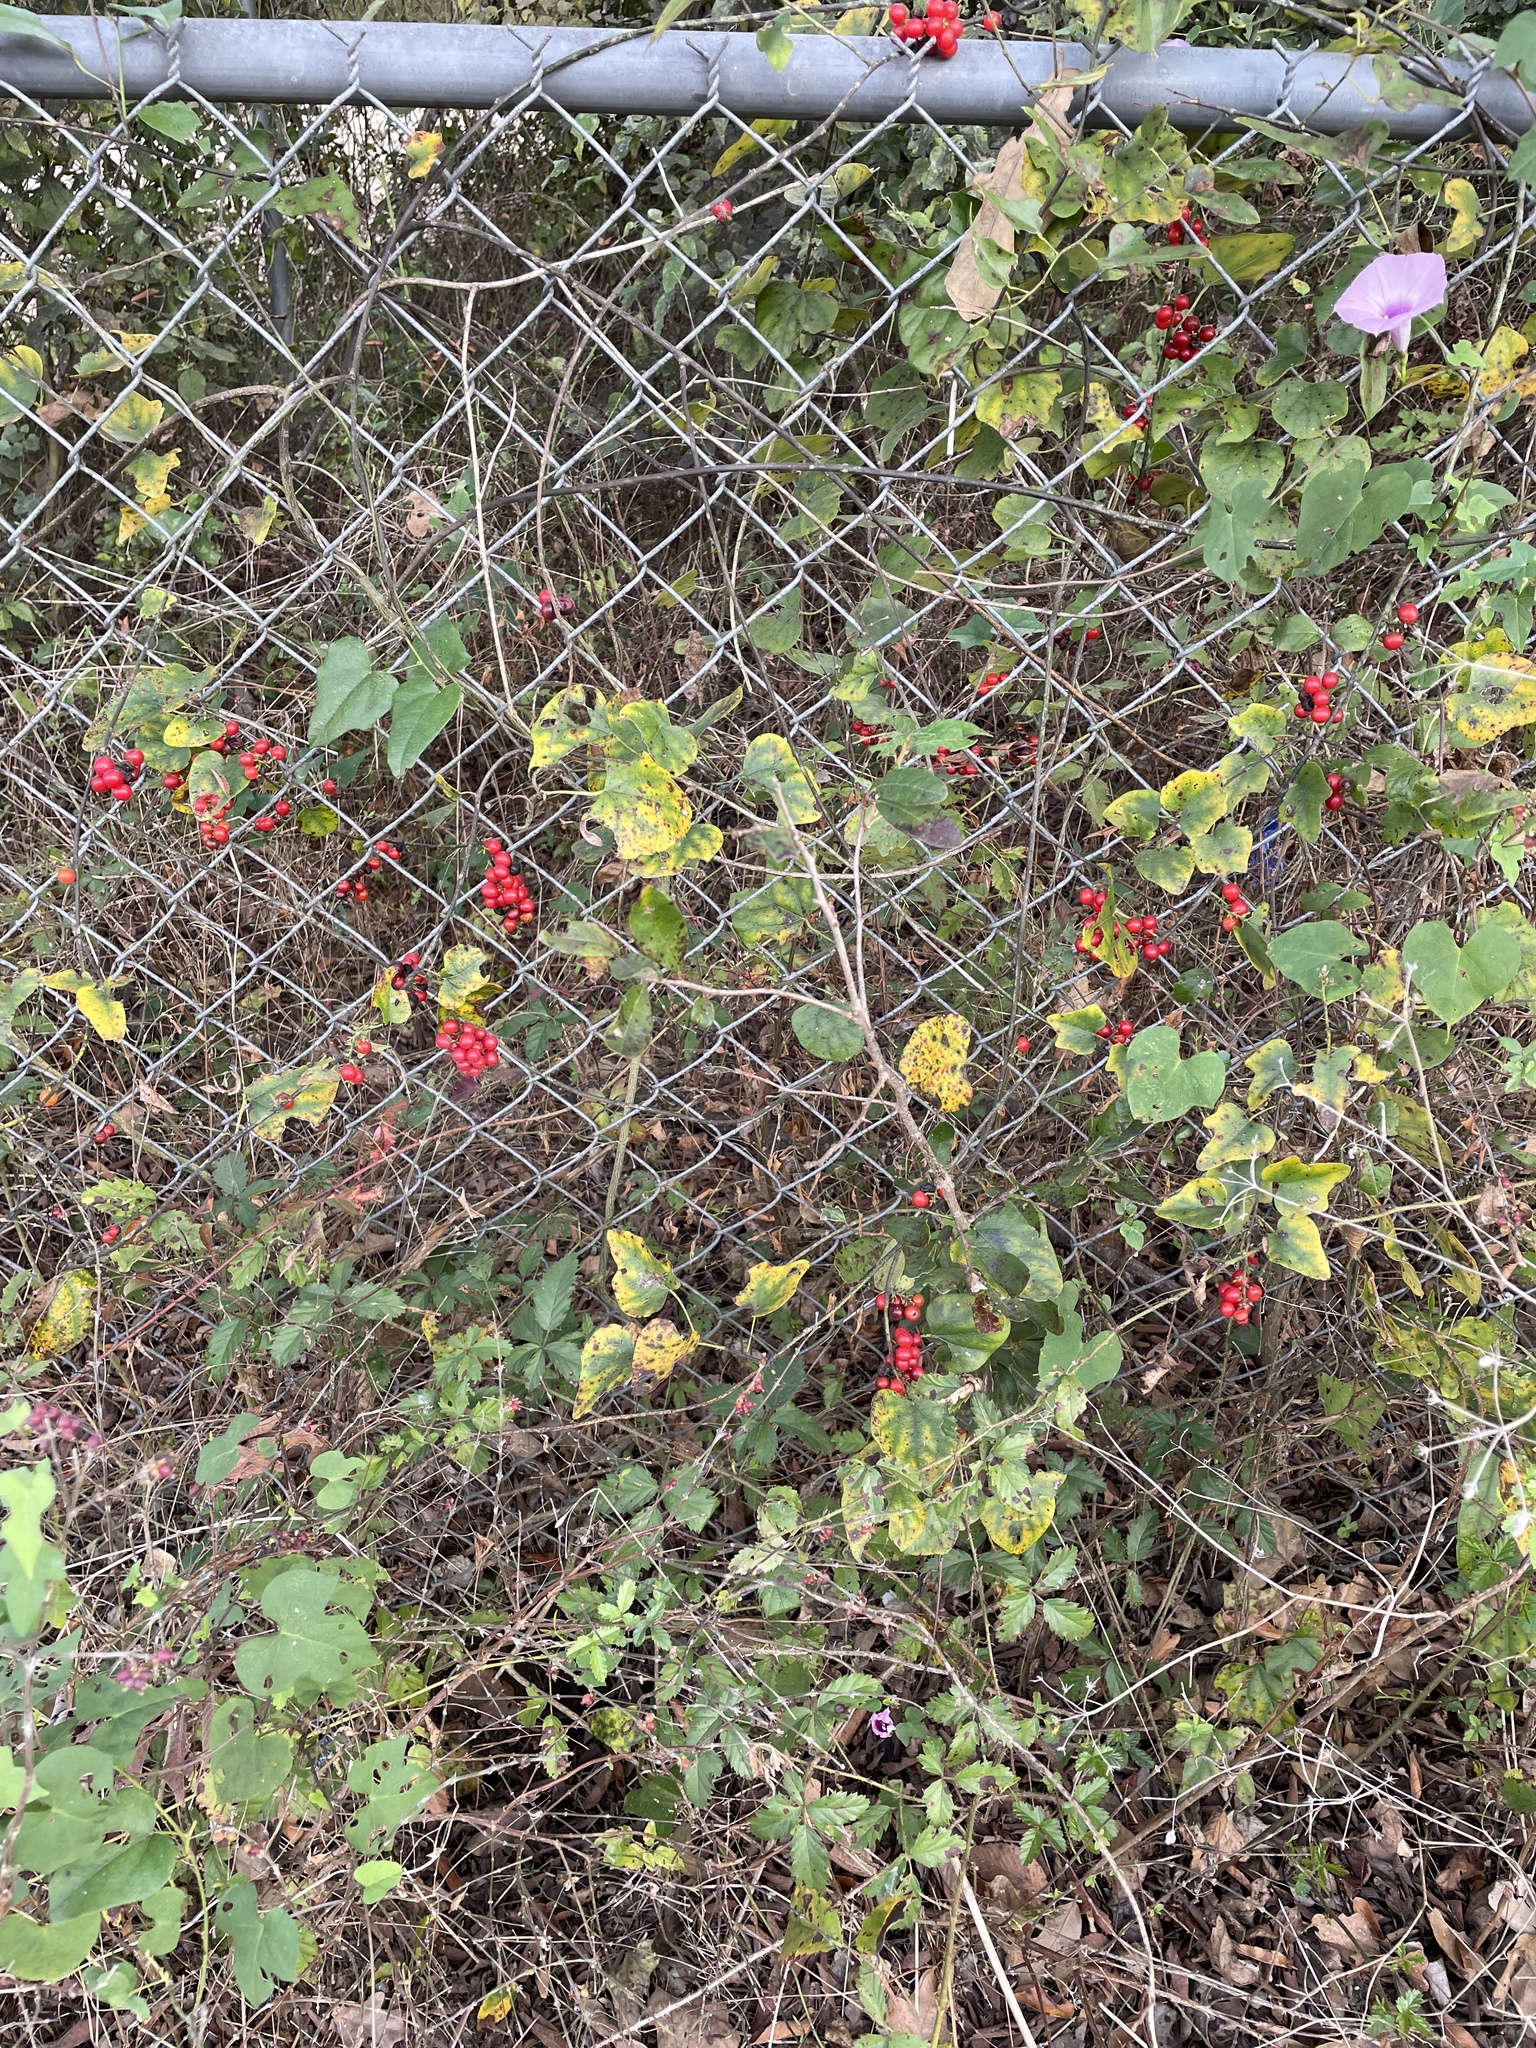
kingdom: Plantae
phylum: Tracheophyta
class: Magnoliopsida
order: Ranunculales
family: Menispermaceae
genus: Cocculus
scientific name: Cocculus carolinus
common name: Carolina moonseed
